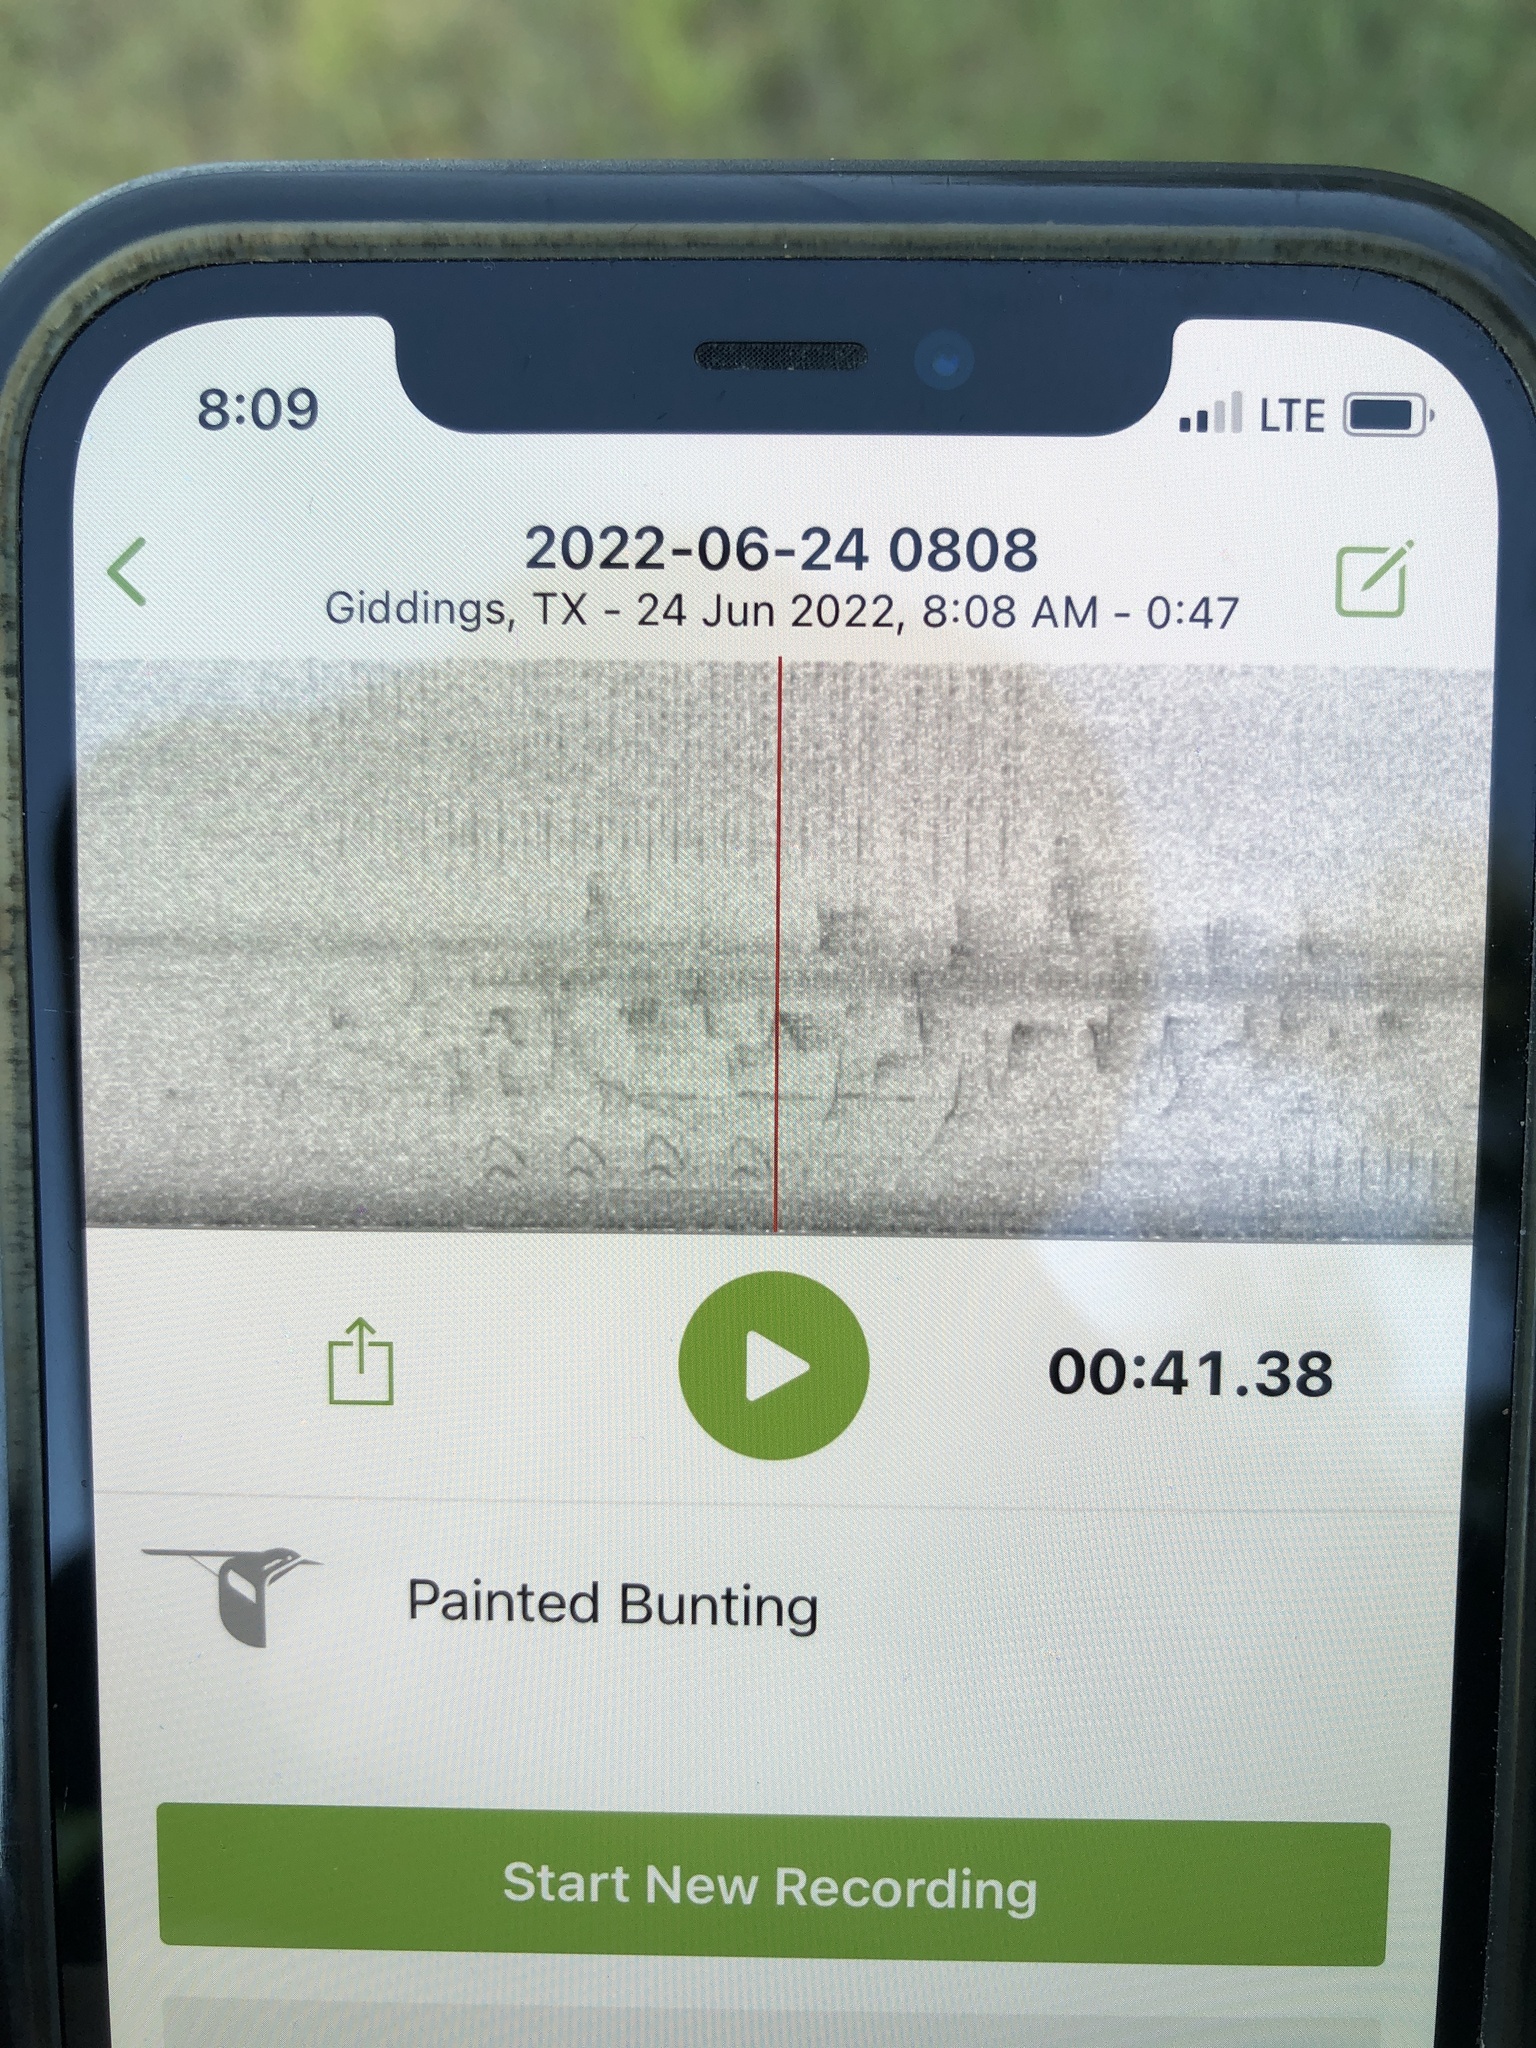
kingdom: Animalia
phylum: Chordata
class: Aves
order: Passeriformes
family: Cardinalidae
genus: Passerina
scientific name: Passerina ciris
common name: Painted bunting
